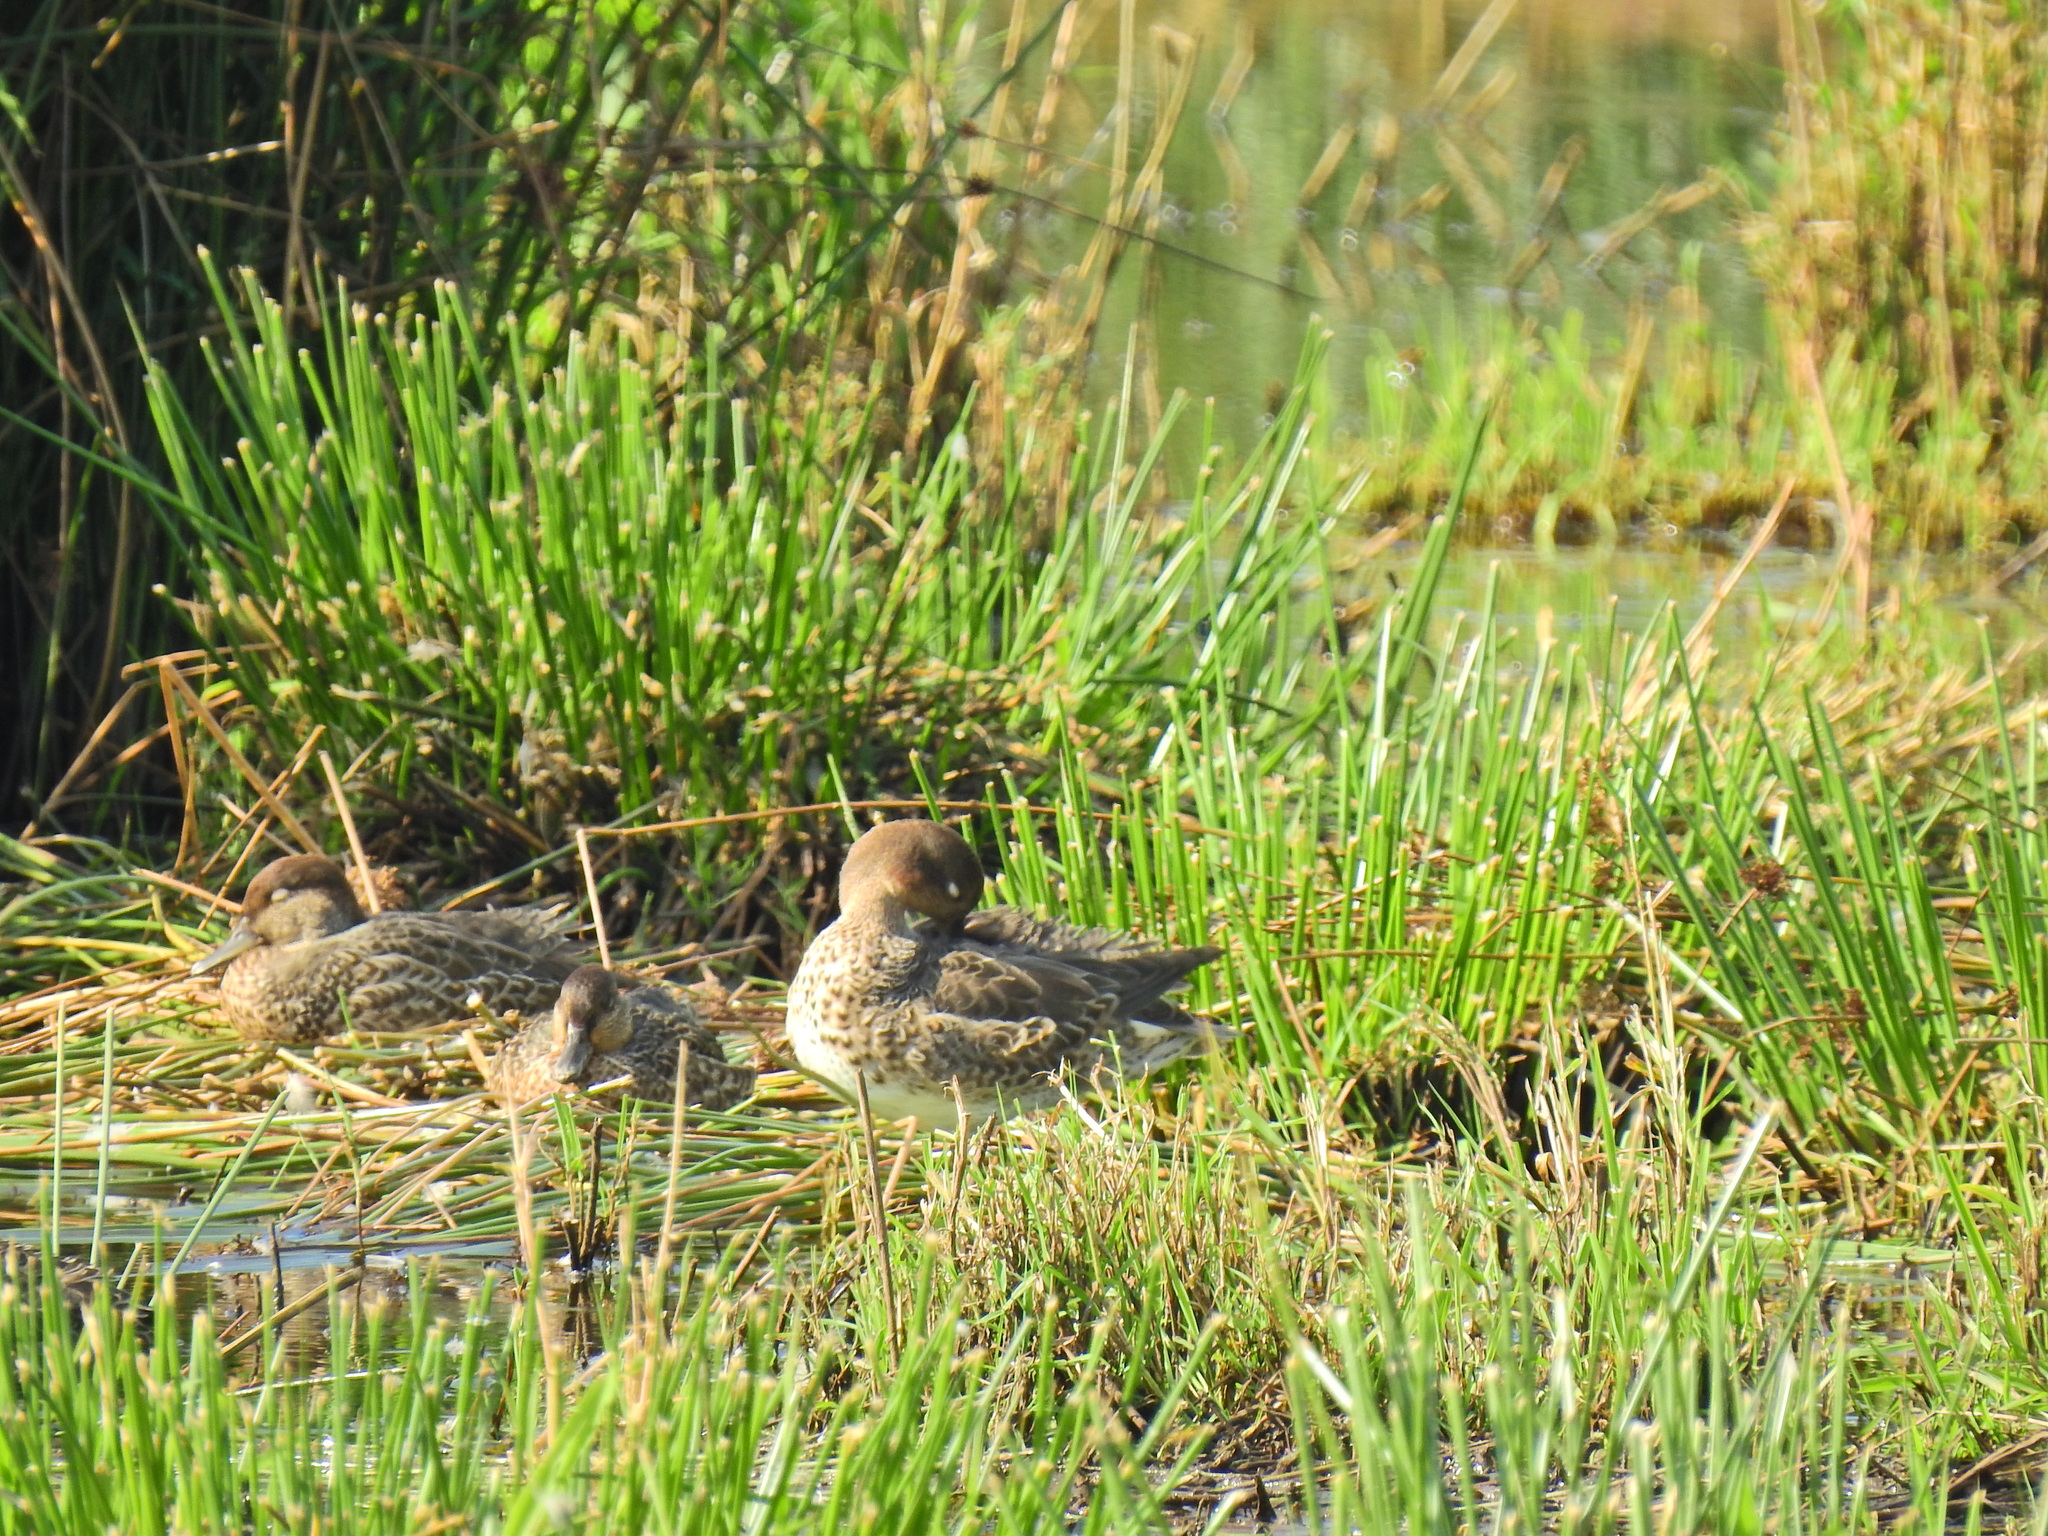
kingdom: Animalia
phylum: Chordata
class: Aves
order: Anseriformes
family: Anatidae
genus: Anas
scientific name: Anas crecca
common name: Eurasian teal
